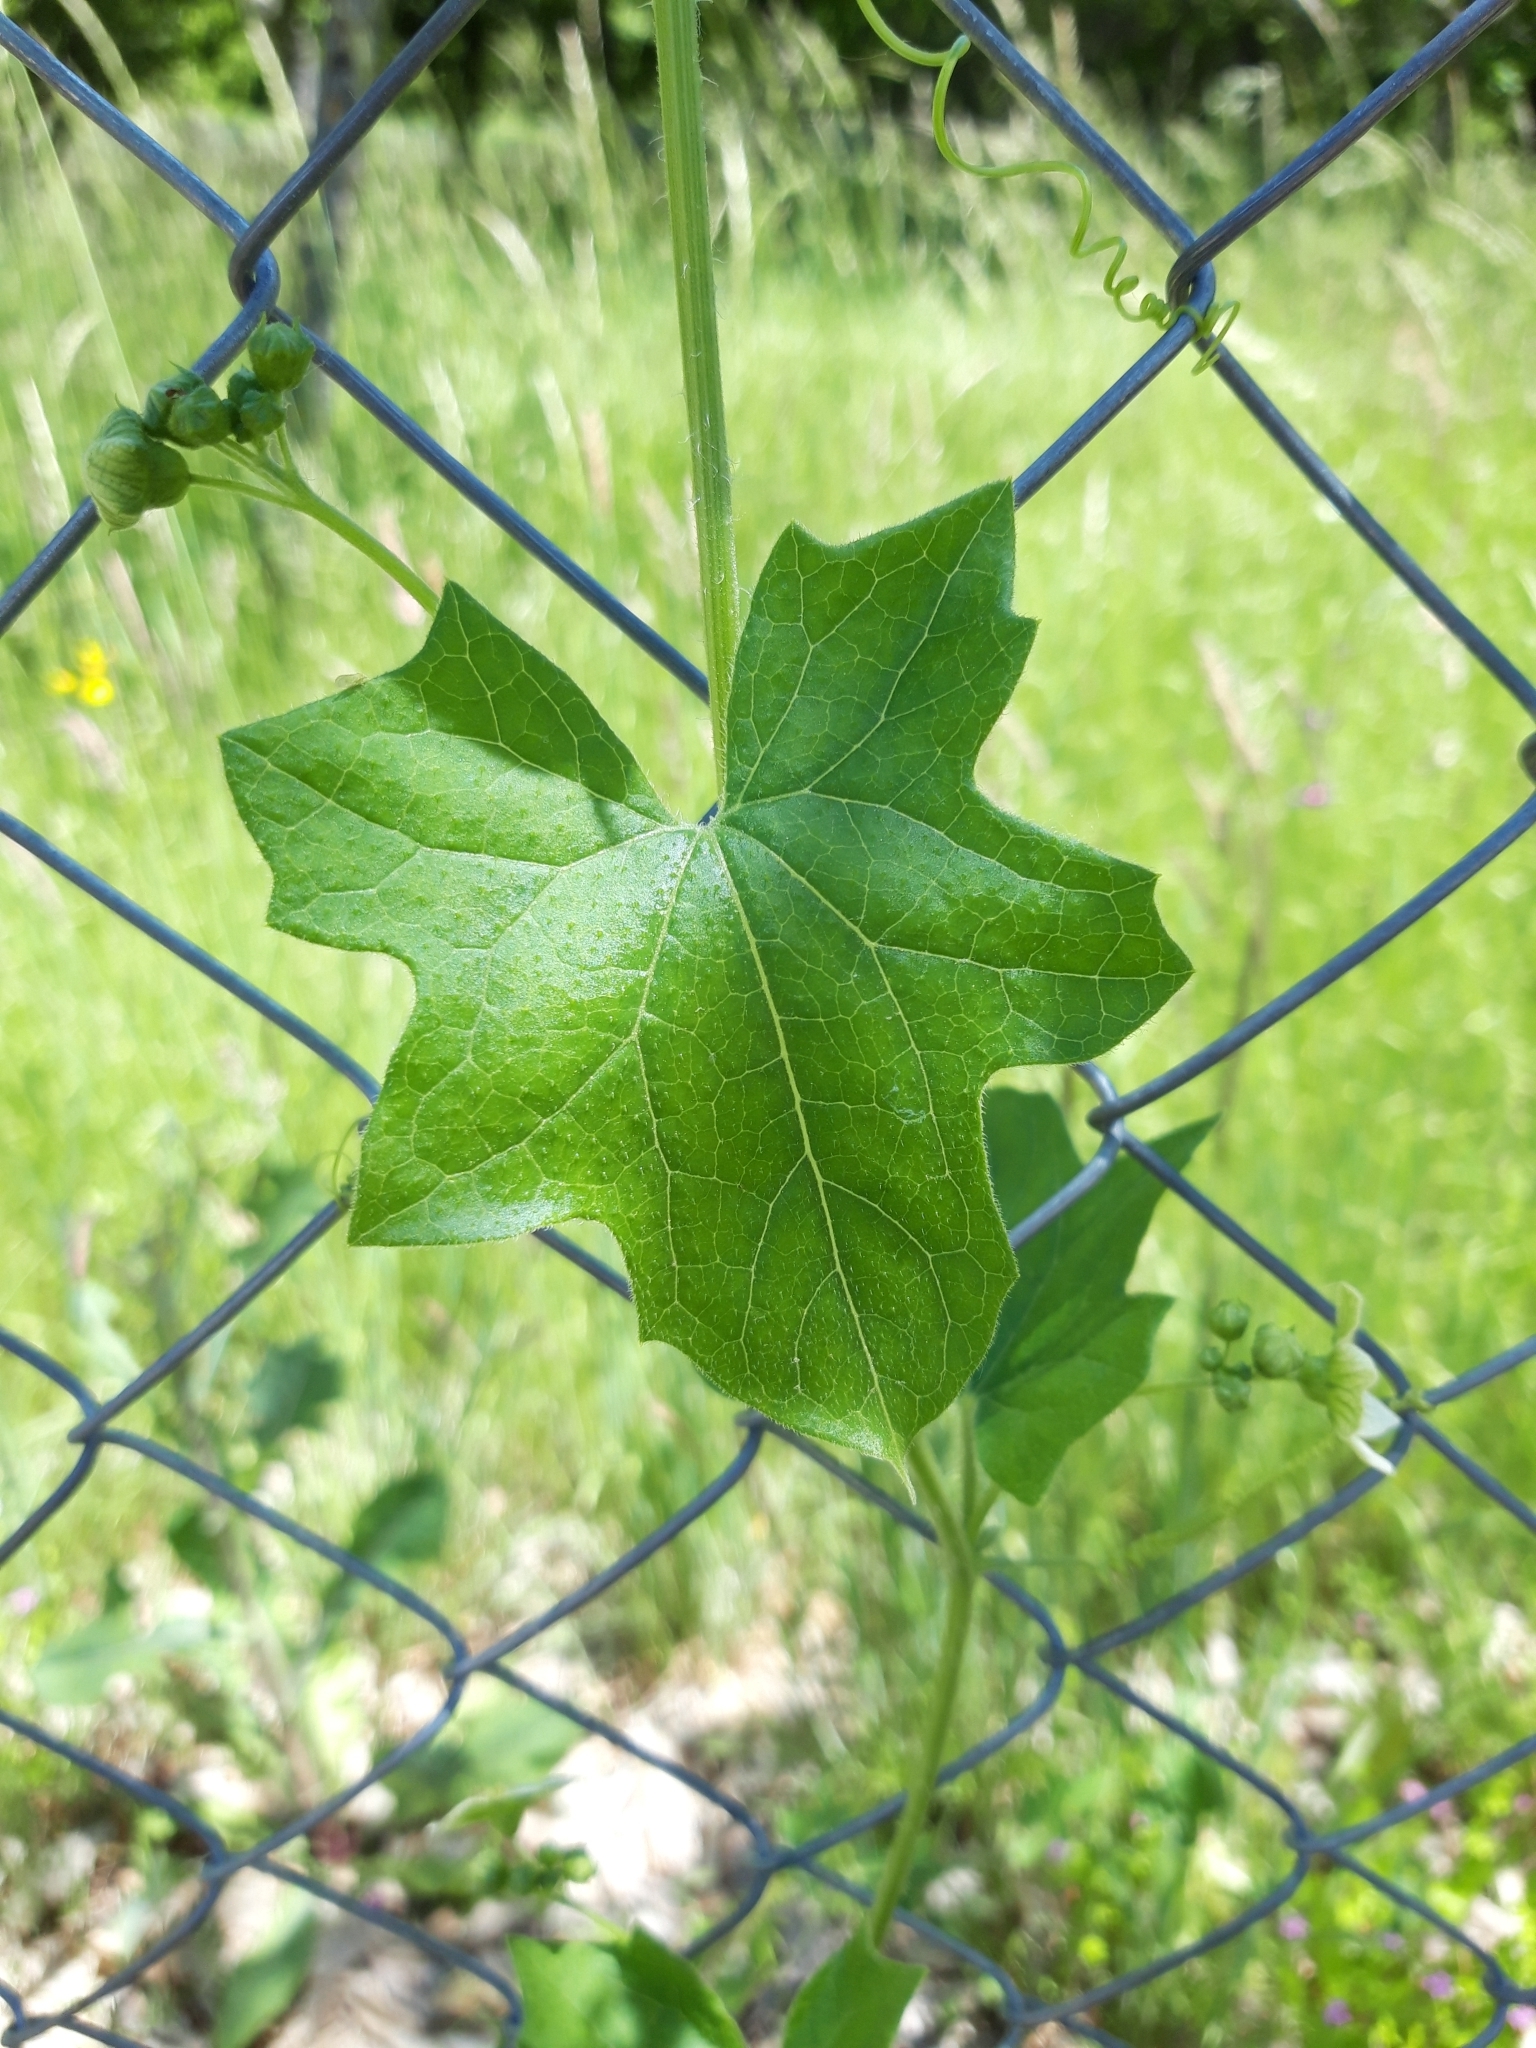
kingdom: Plantae
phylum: Tracheophyta
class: Magnoliopsida
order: Cucurbitales
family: Cucurbitaceae
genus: Bryonia
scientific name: Bryonia cretica
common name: Cretan bryony
